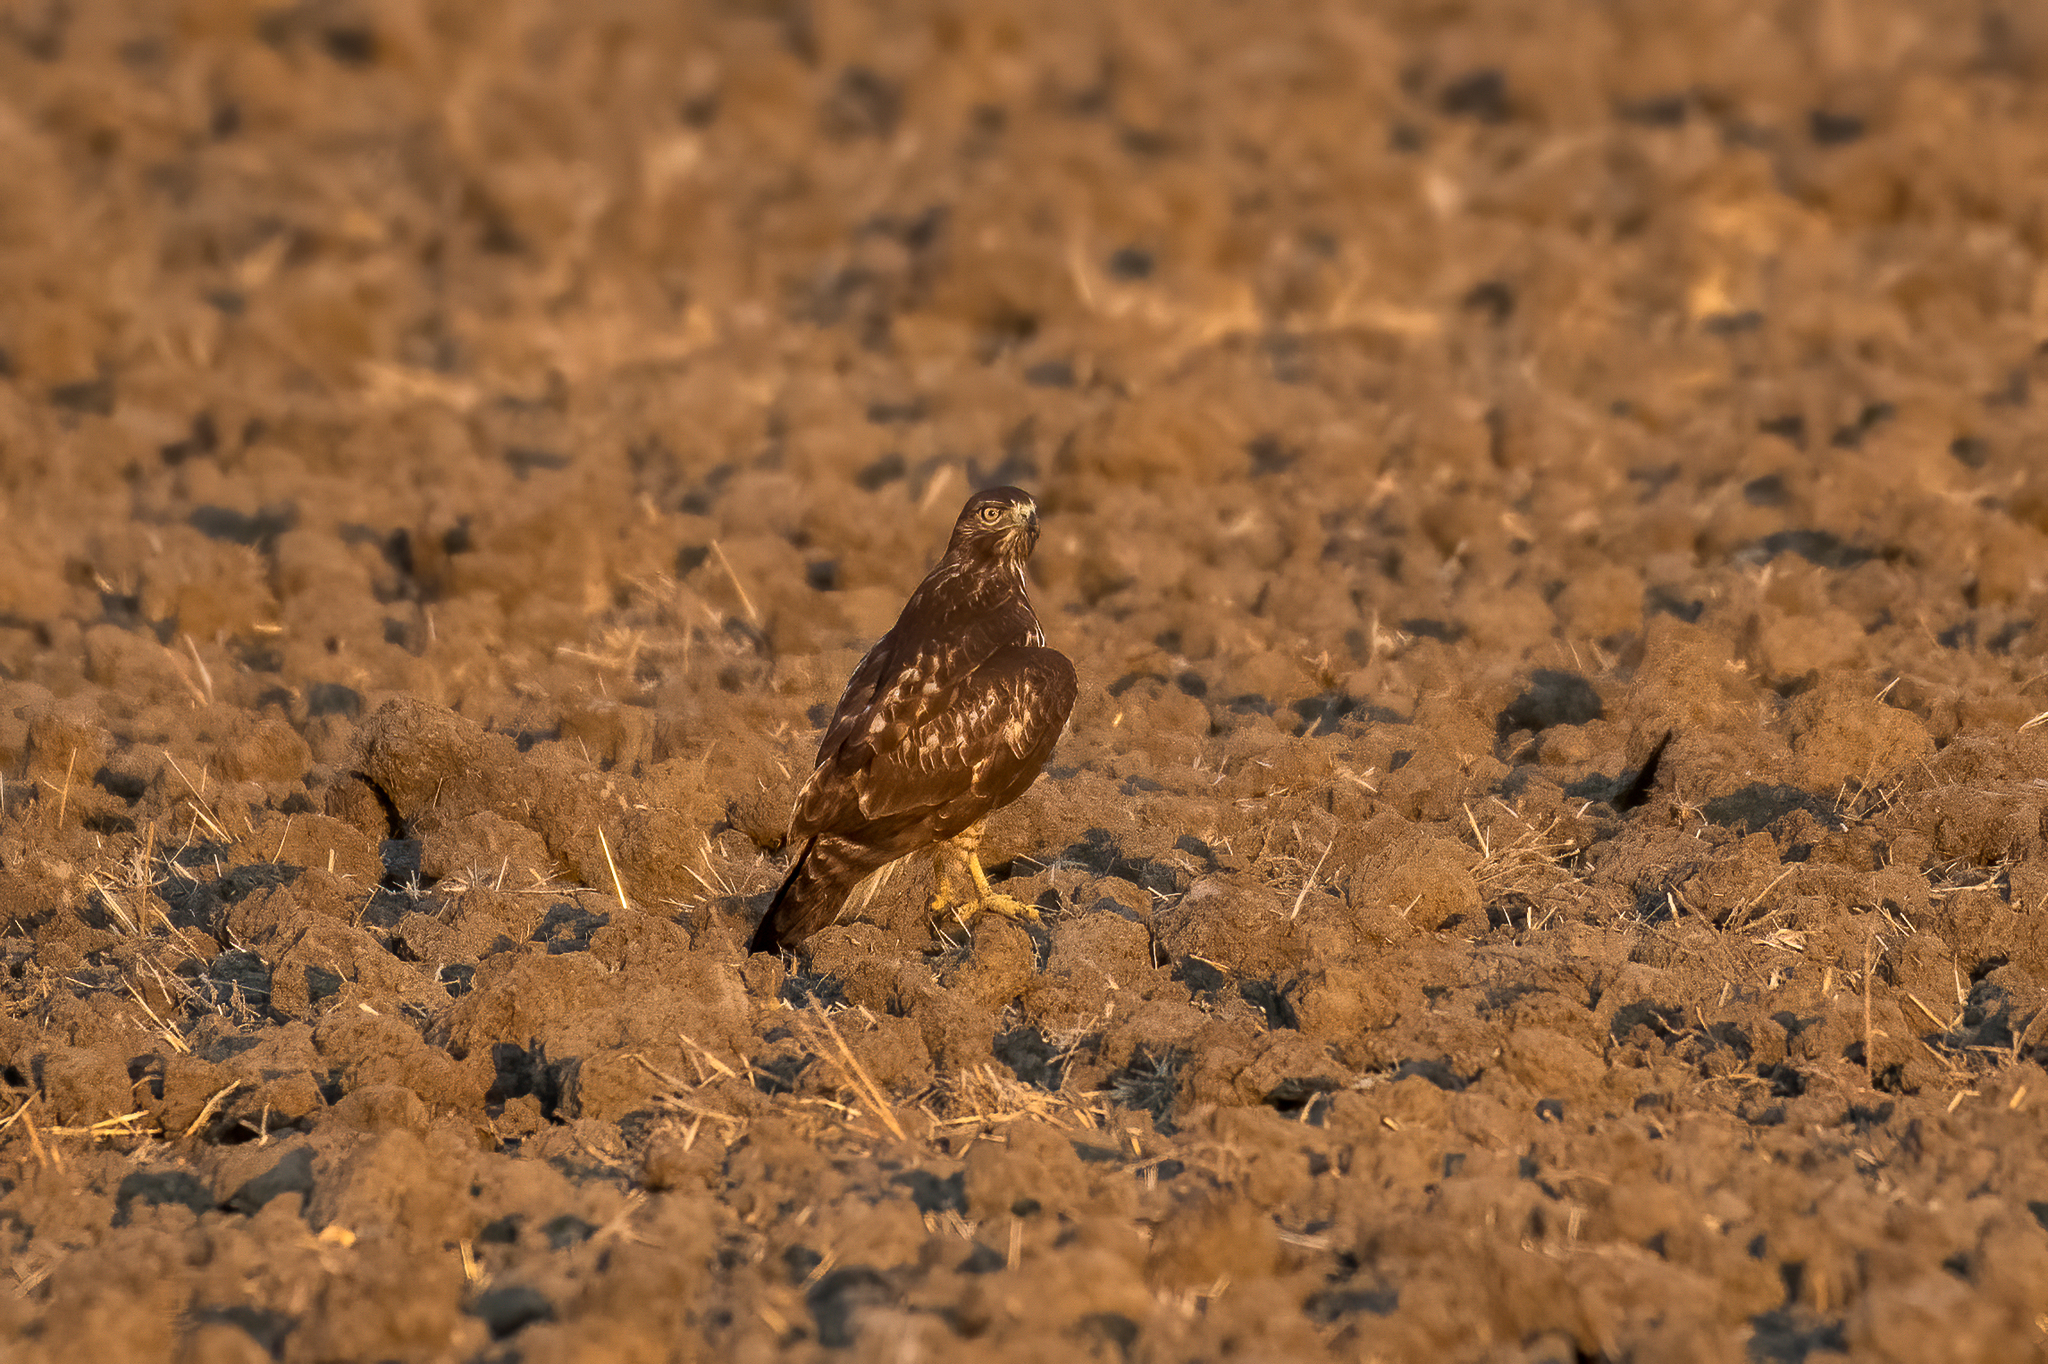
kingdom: Animalia
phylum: Chordata
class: Aves
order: Accipitriformes
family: Accipitridae
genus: Buteo
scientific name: Buteo jamaicensis
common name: Red-tailed hawk
